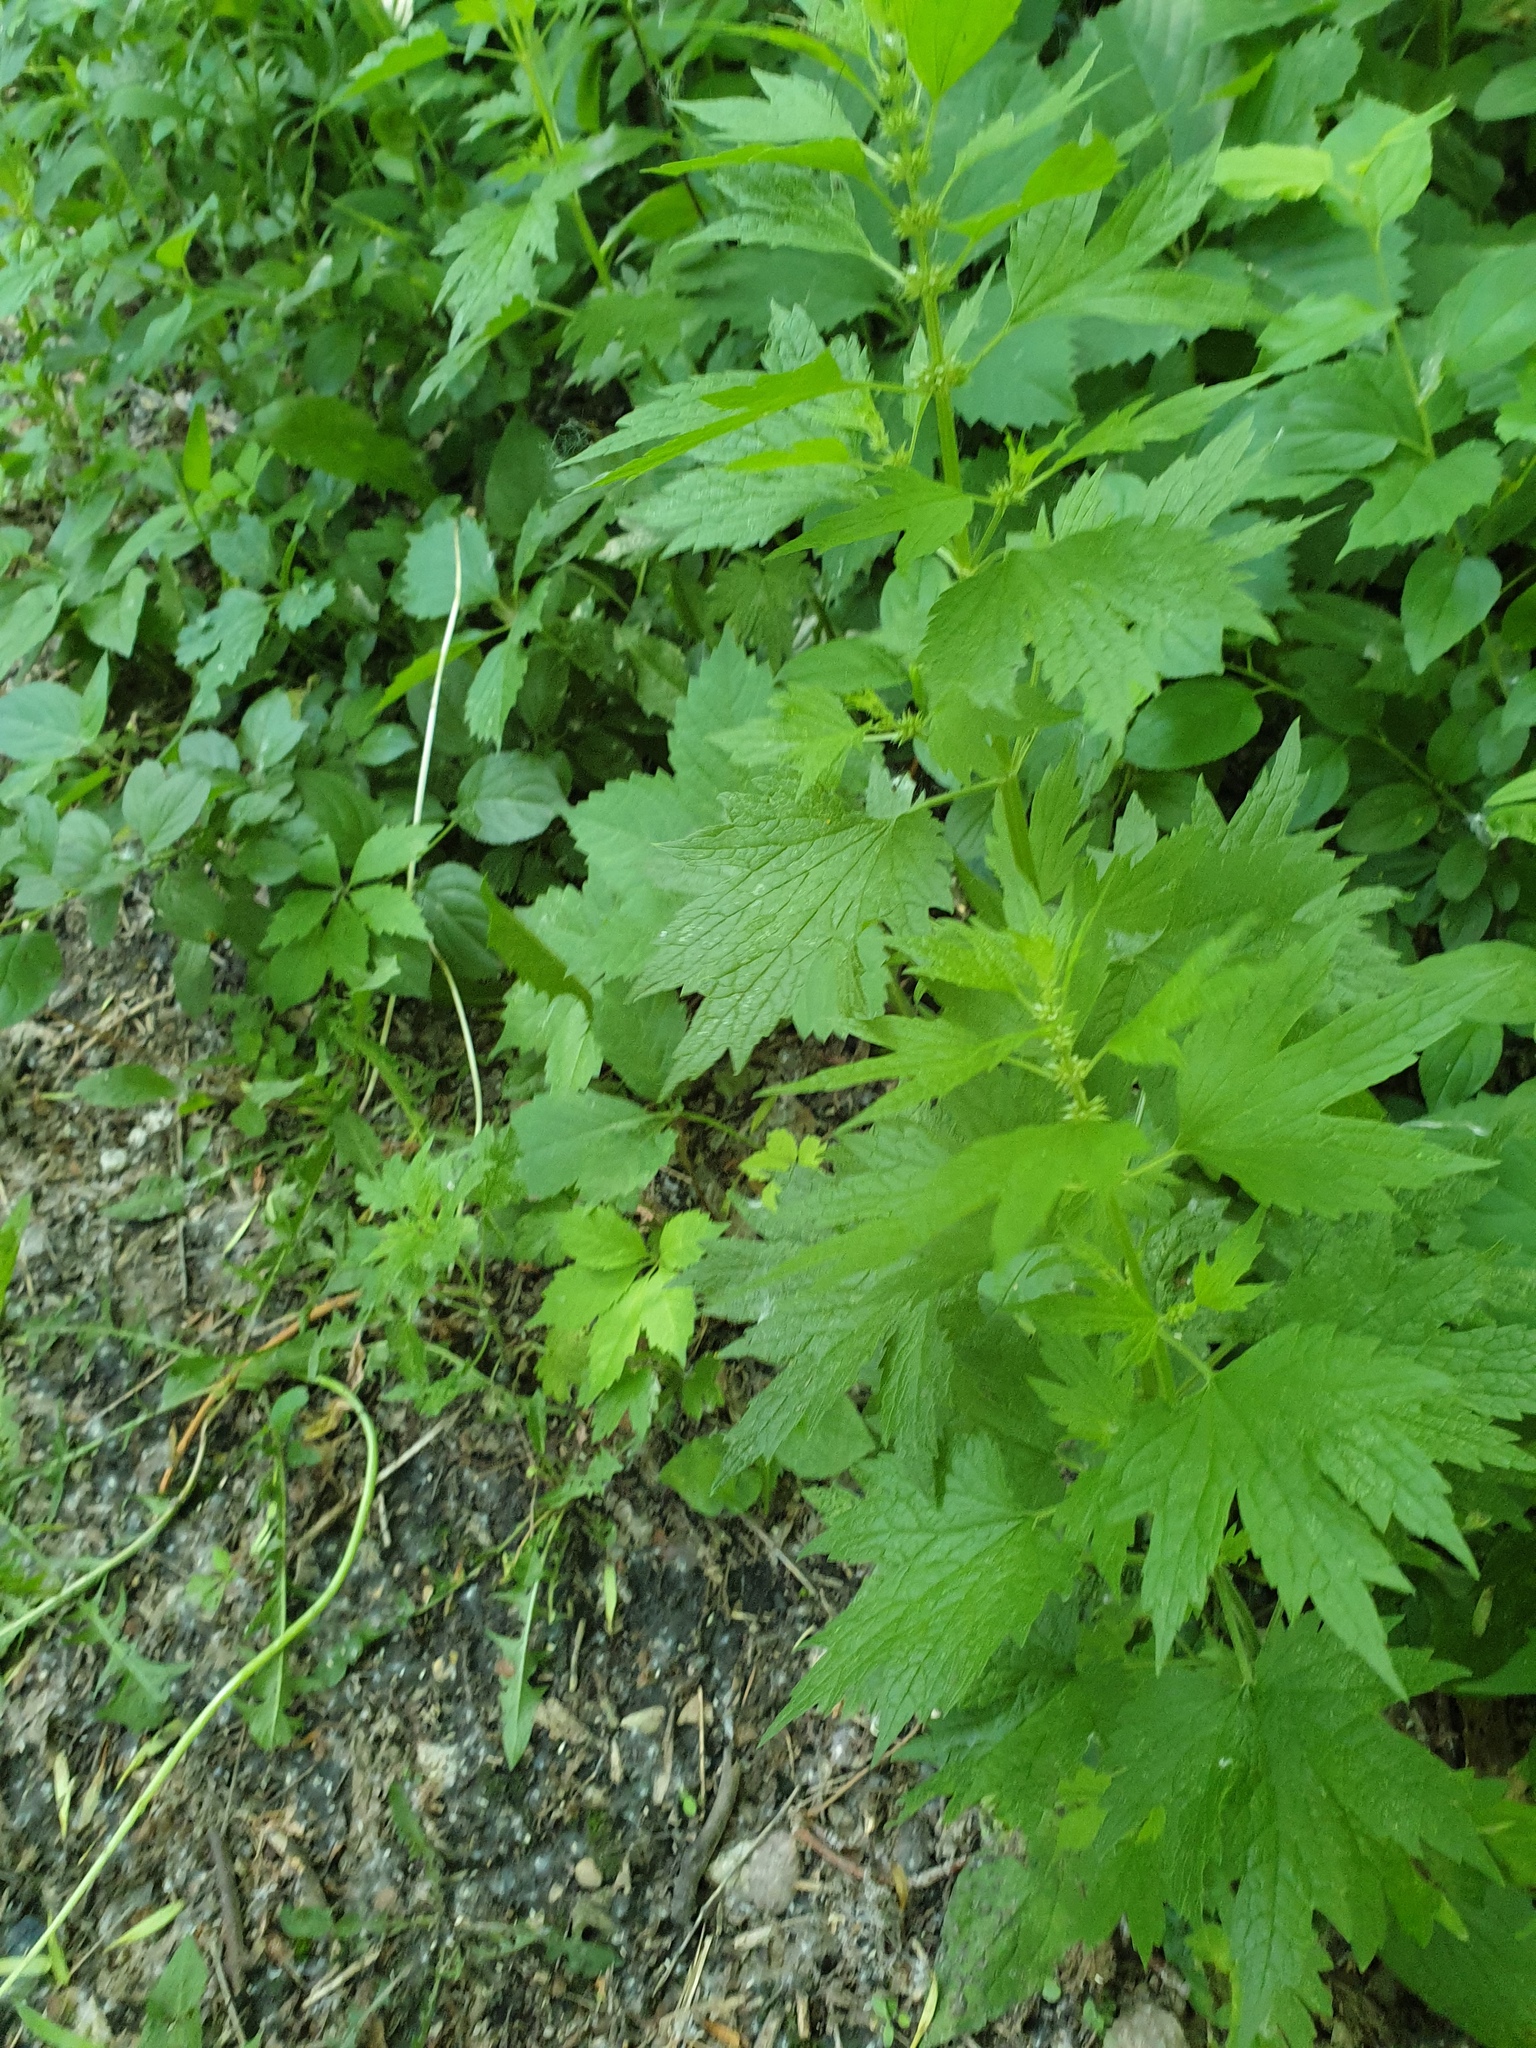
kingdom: Plantae
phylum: Tracheophyta
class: Magnoliopsida
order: Lamiales
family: Lamiaceae
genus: Leonurus
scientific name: Leonurus cardiaca
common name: Motherwort
